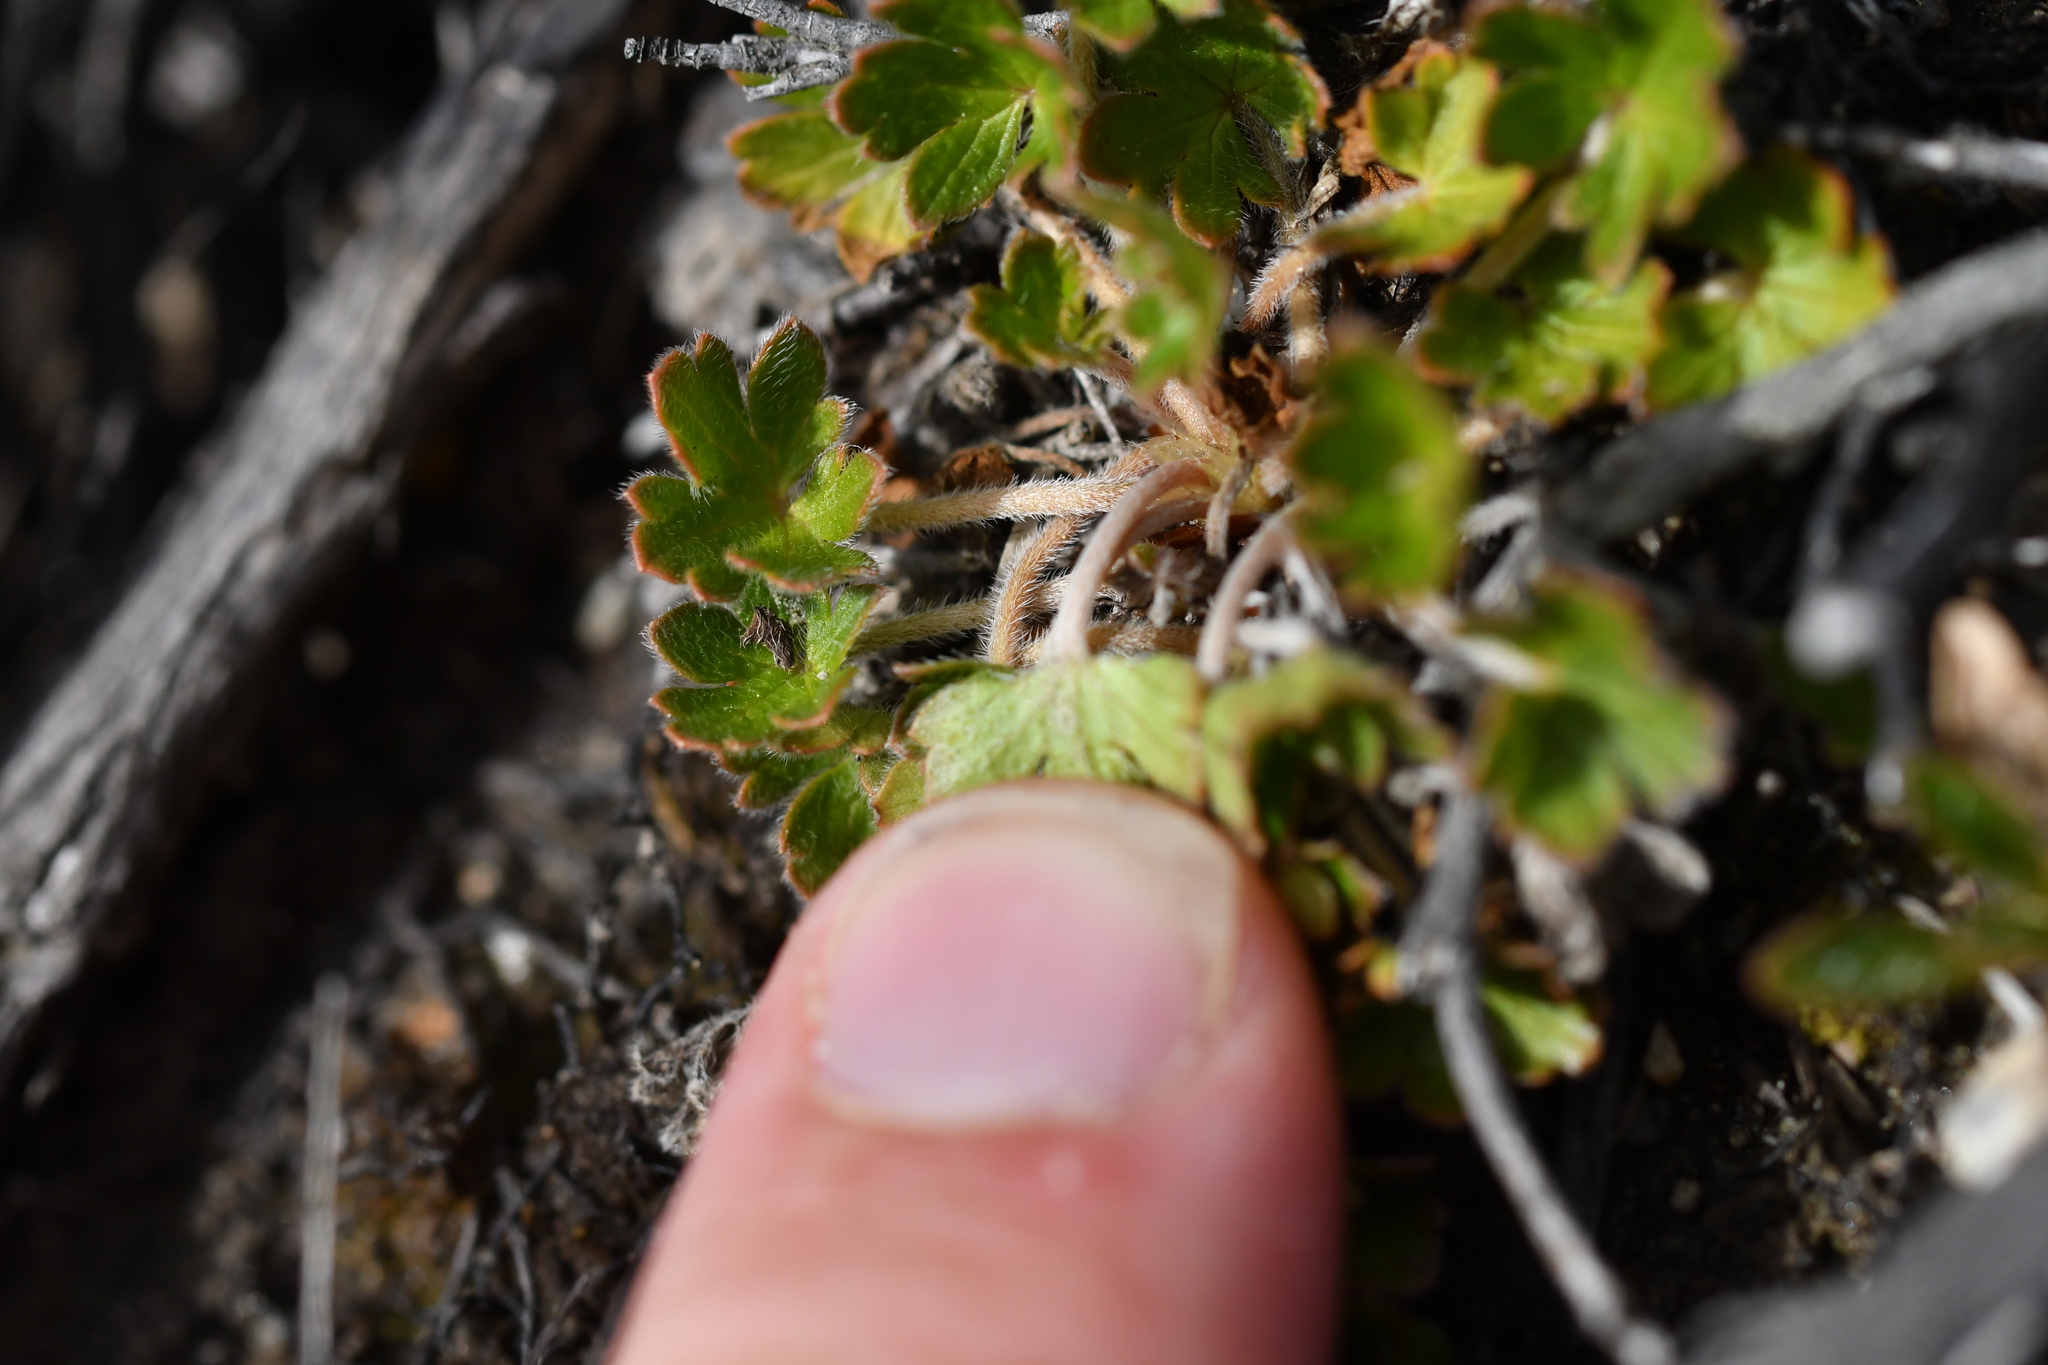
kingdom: Plantae
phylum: Tracheophyta
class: Magnoliopsida
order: Geraniales
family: Geraniaceae
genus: Geranium
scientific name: Geranium brevicaule
